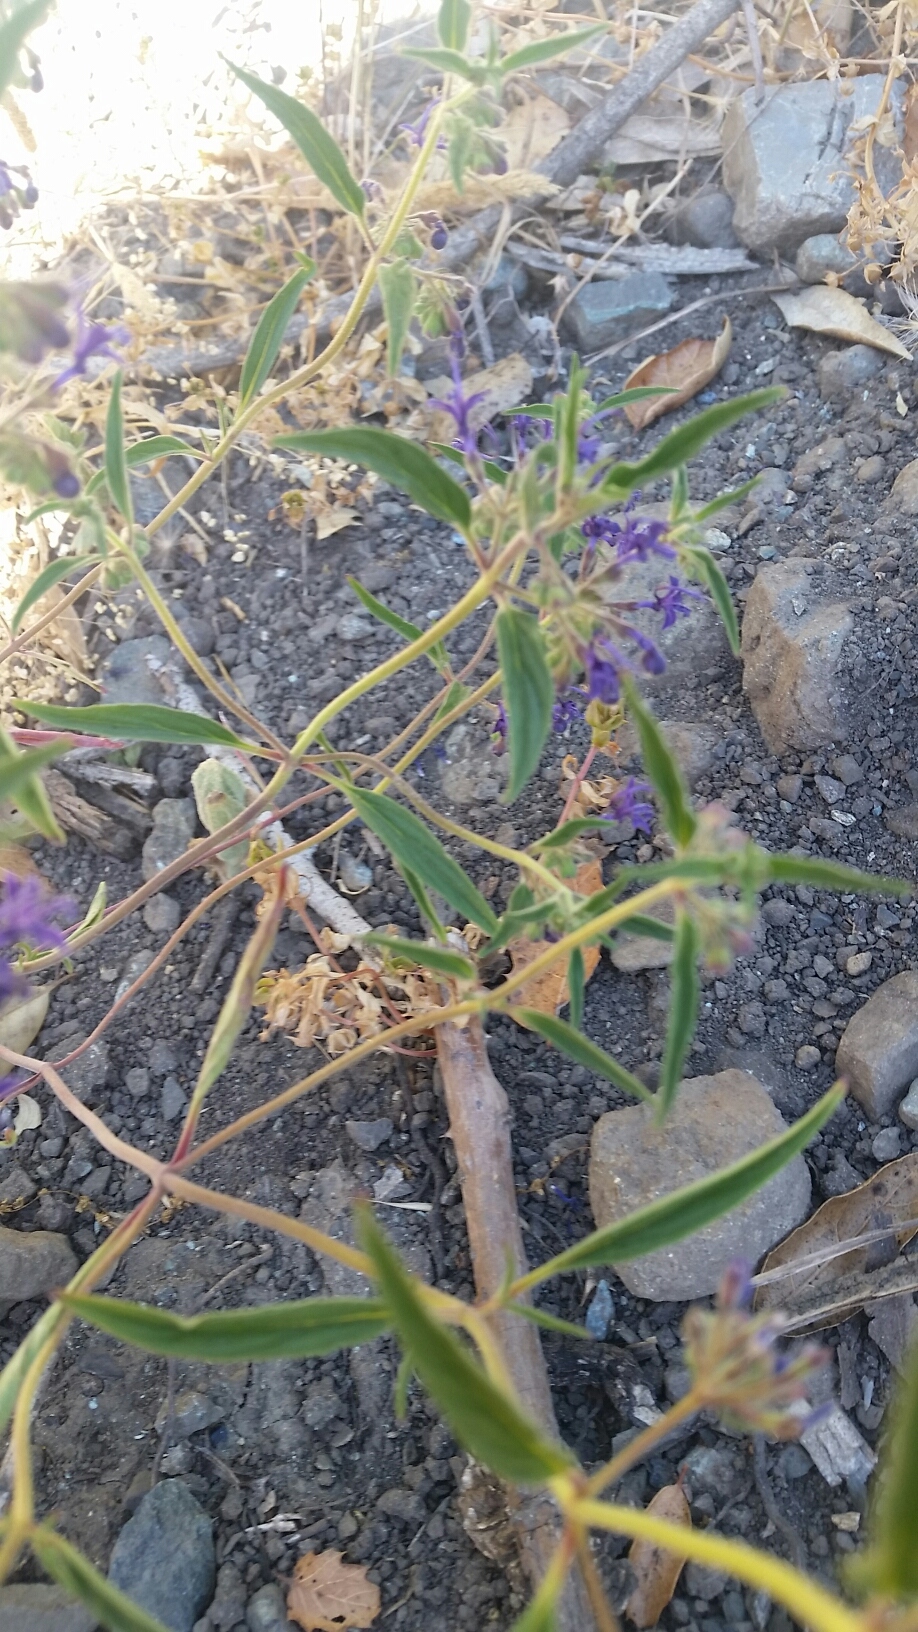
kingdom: Plantae
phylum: Tracheophyta
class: Magnoliopsida
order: Lamiales
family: Lamiaceae
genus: Trichostema
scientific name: Trichostema laxum
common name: Turpentine weed
